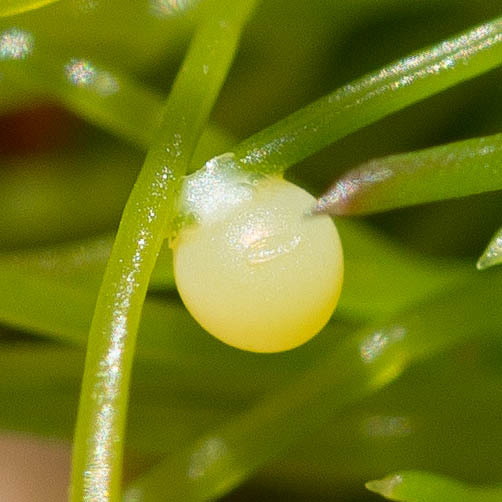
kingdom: Animalia
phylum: Arthropoda
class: Insecta
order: Lepidoptera
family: Papilionidae
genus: Papilio
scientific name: Papilio zelicaon
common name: Anise swallowtail
